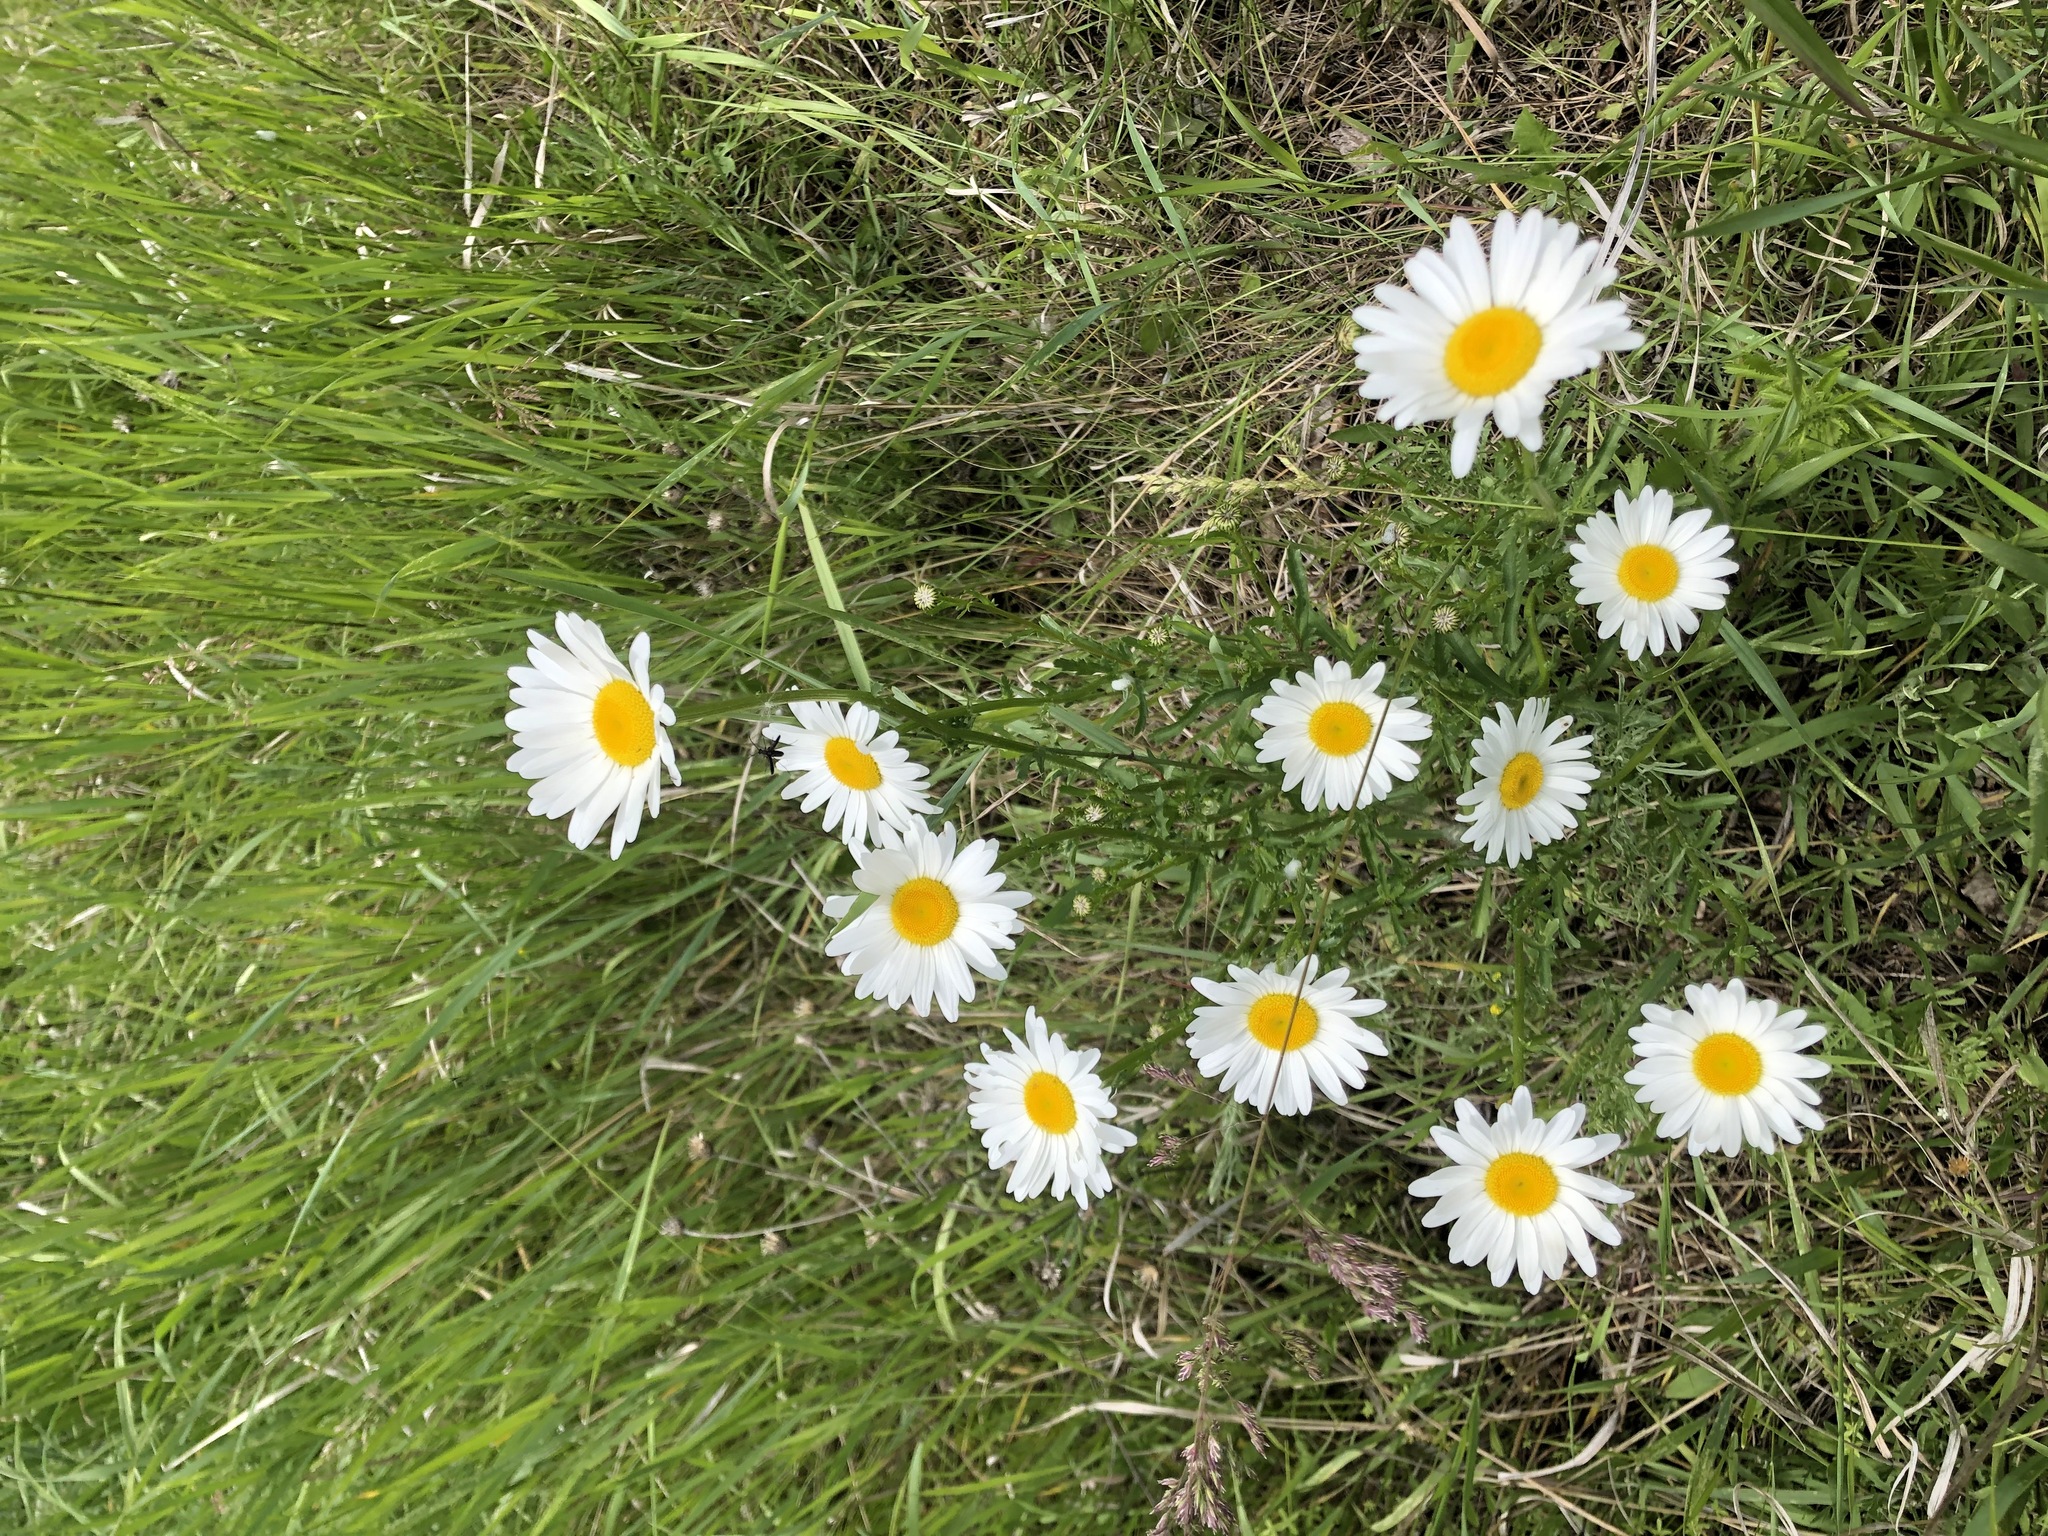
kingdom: Plantae
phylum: Tracheophyta
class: Magnoliopsida
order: Asterales
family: Asteraceae
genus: Leucanthemum
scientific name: Leucanthemum vulgare
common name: Oxeye daisy
